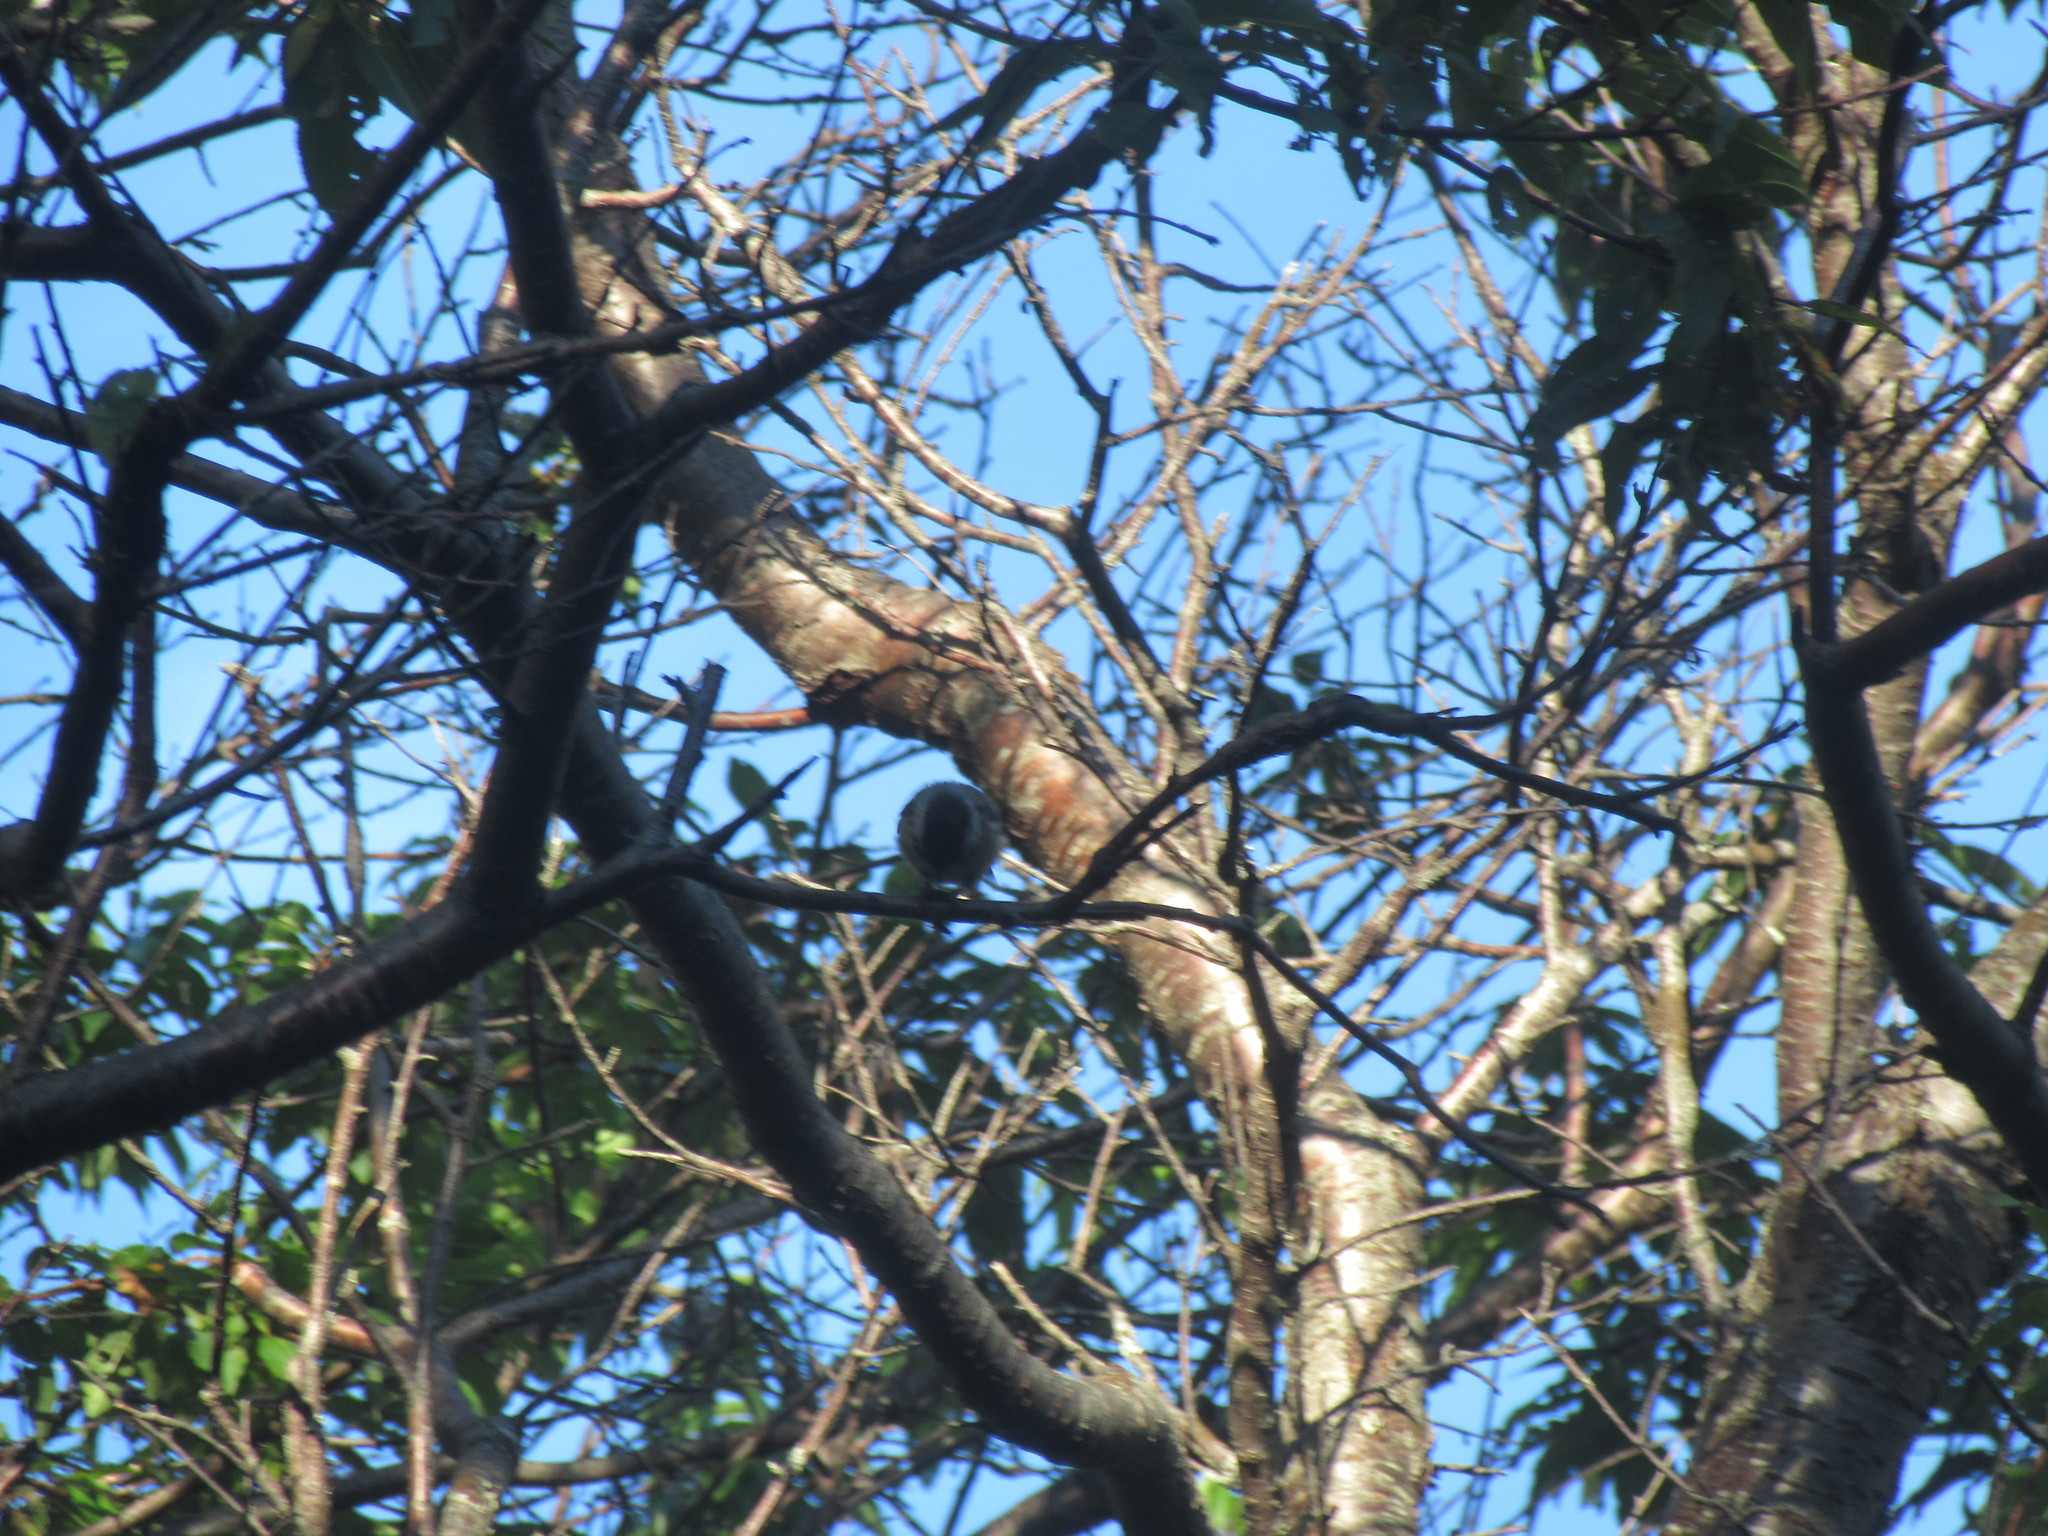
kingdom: Animalia
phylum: Chordata
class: Aves
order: Passeriformes
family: Paridae
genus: Poecile
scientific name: Poecile atricapillus
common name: Black-capped chickadee
